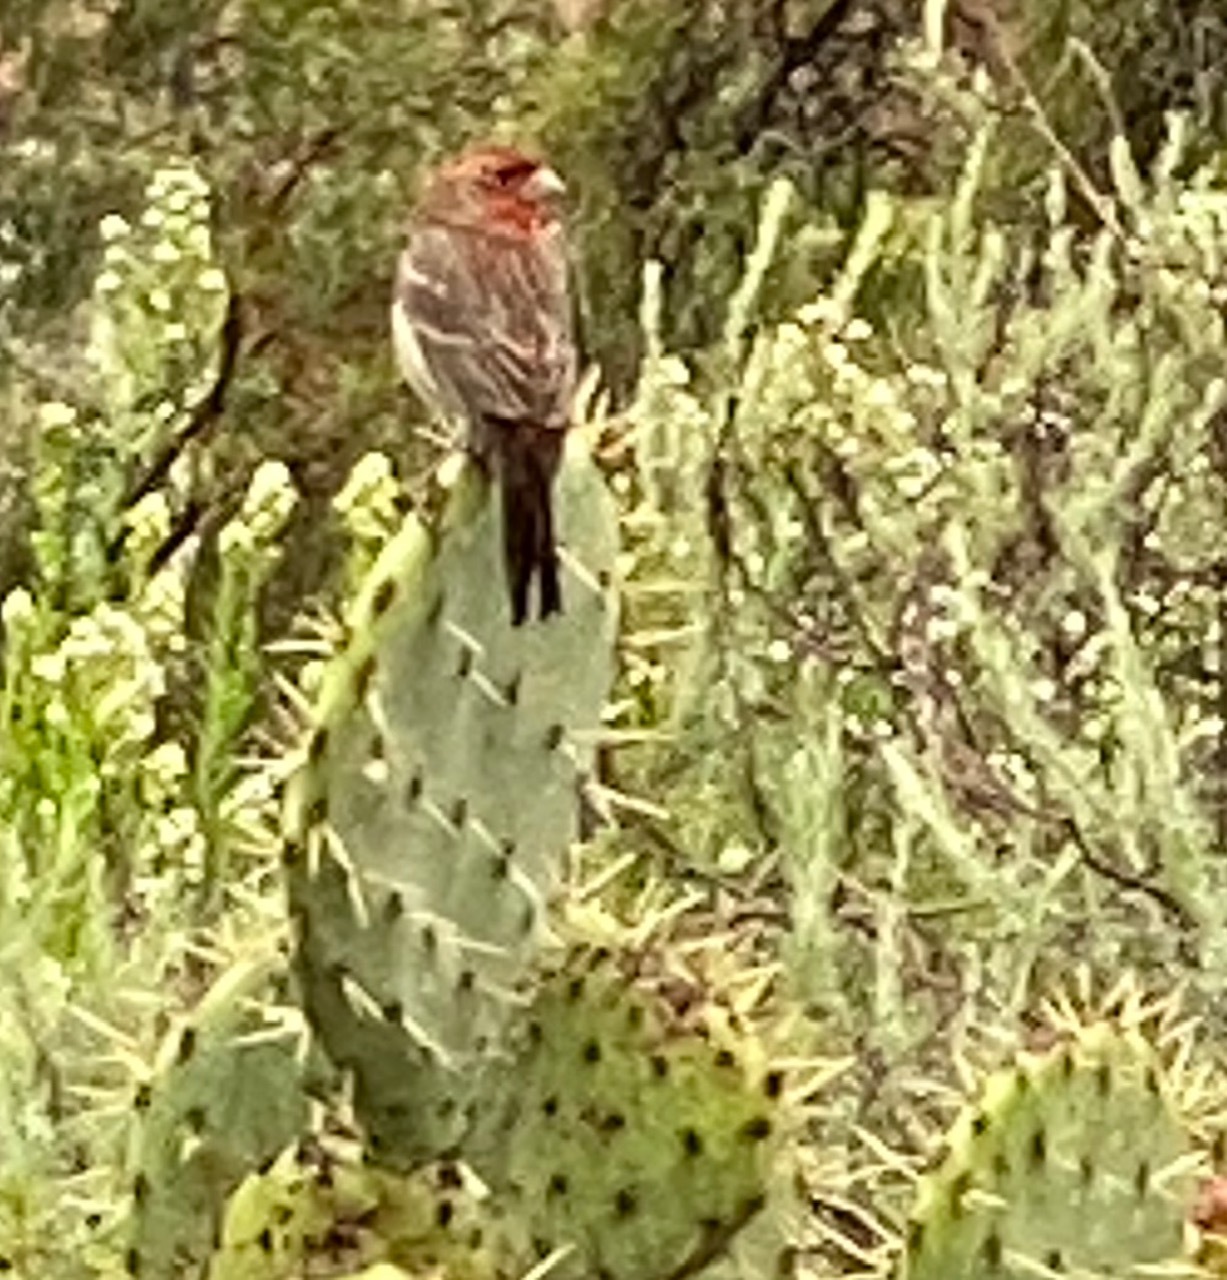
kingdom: Animalia
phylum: Chordata
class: Aves
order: Passeriformes
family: Fringillidae
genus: Haemorhous
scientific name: Haemorhous mexicanus
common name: House finch
